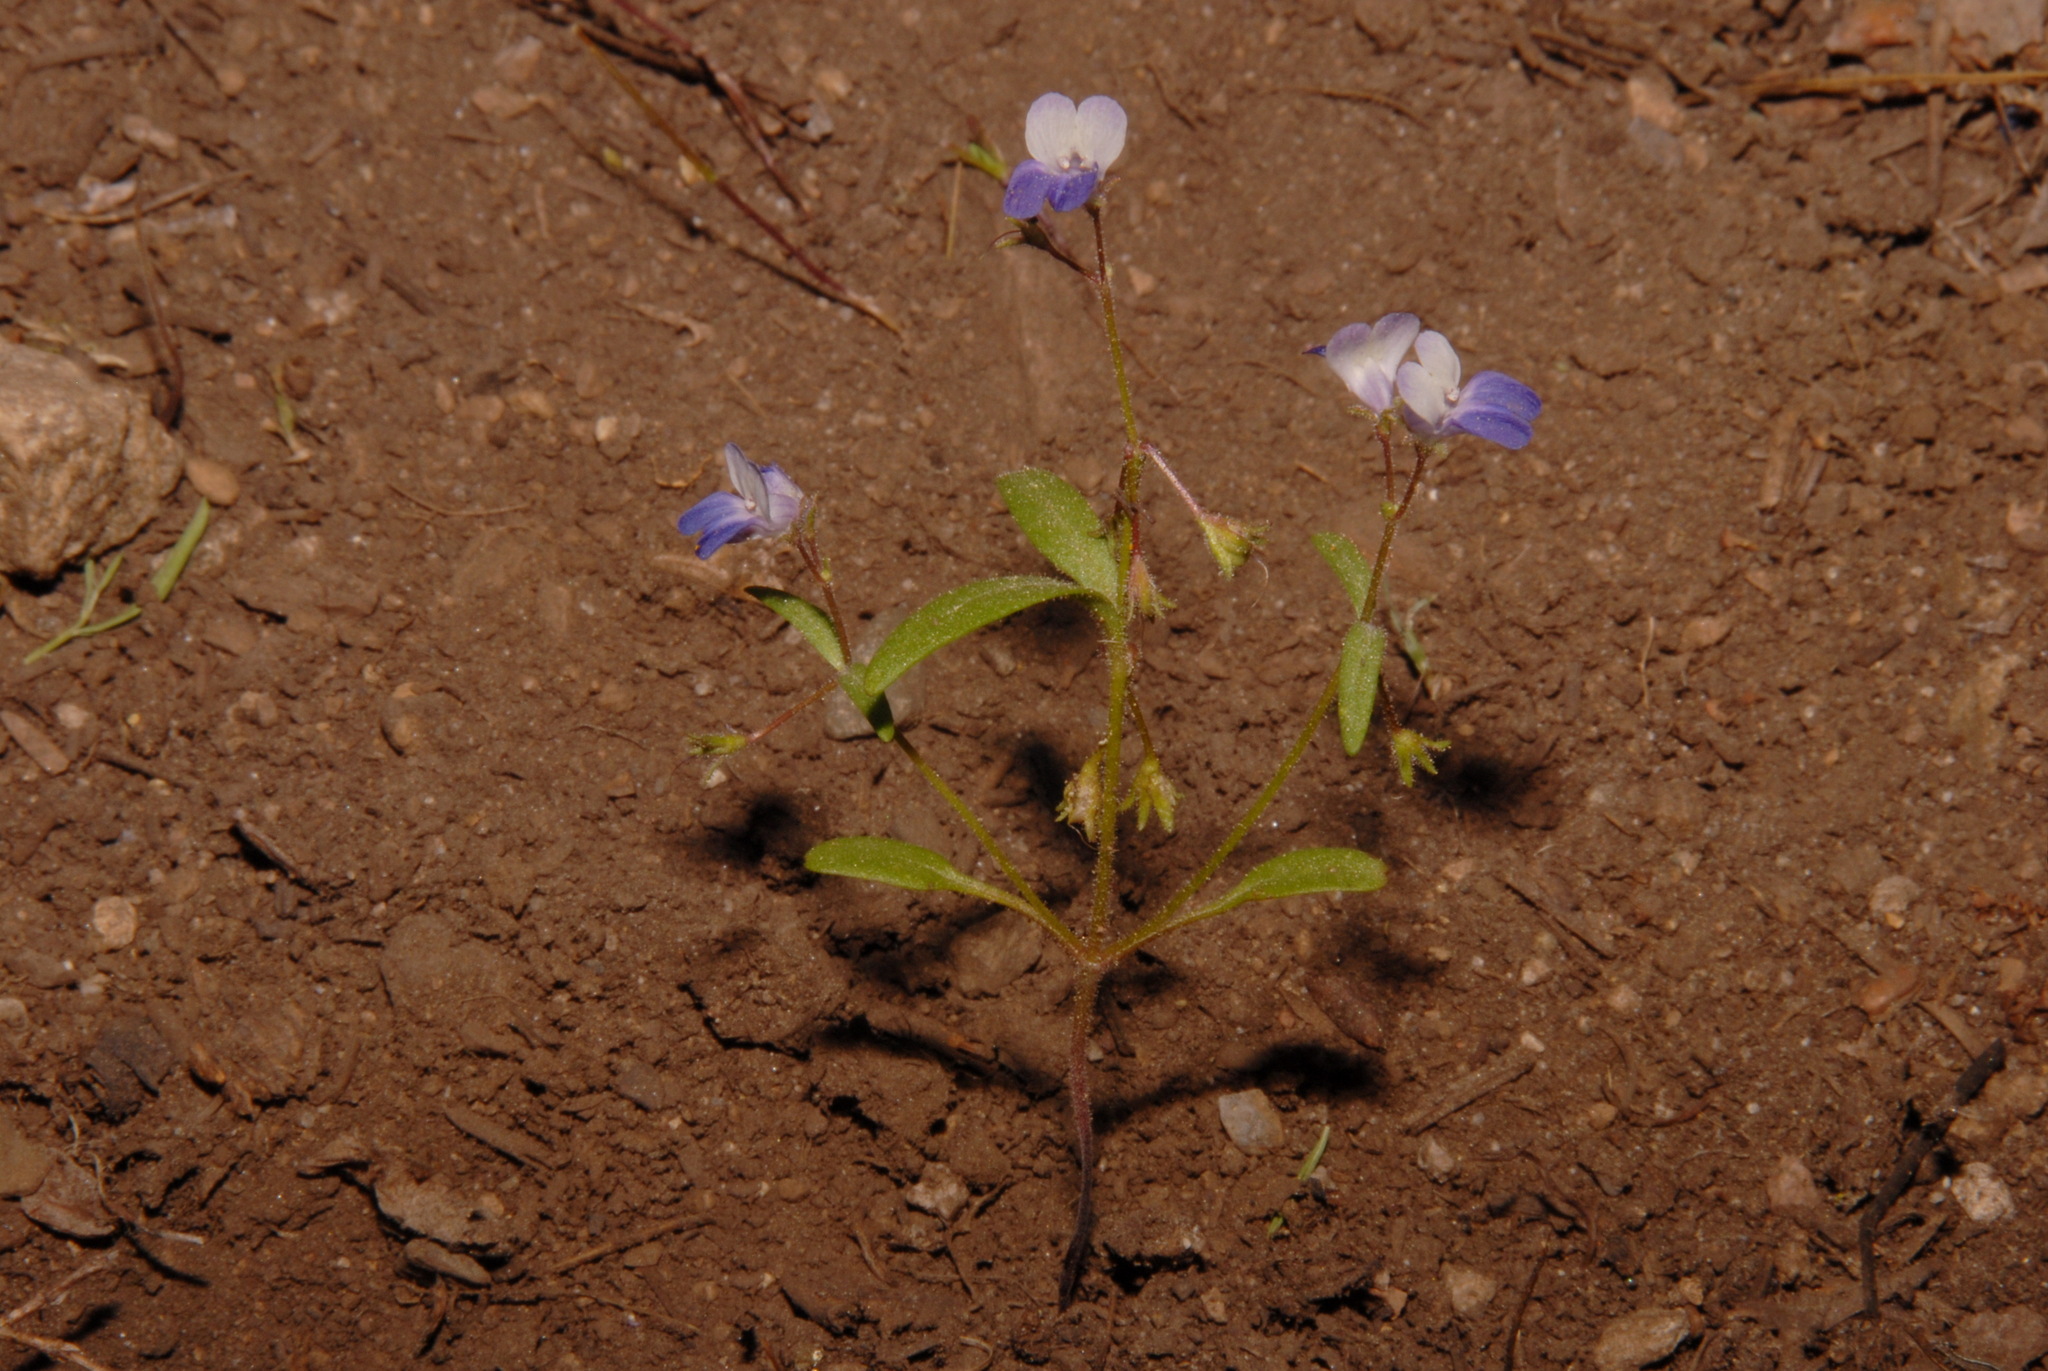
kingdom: Plantae
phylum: Tracheophyta
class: Magnoliopsida
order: Lamiales
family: Plantaginaceae
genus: Collinsia
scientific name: Collinsia torreyi
